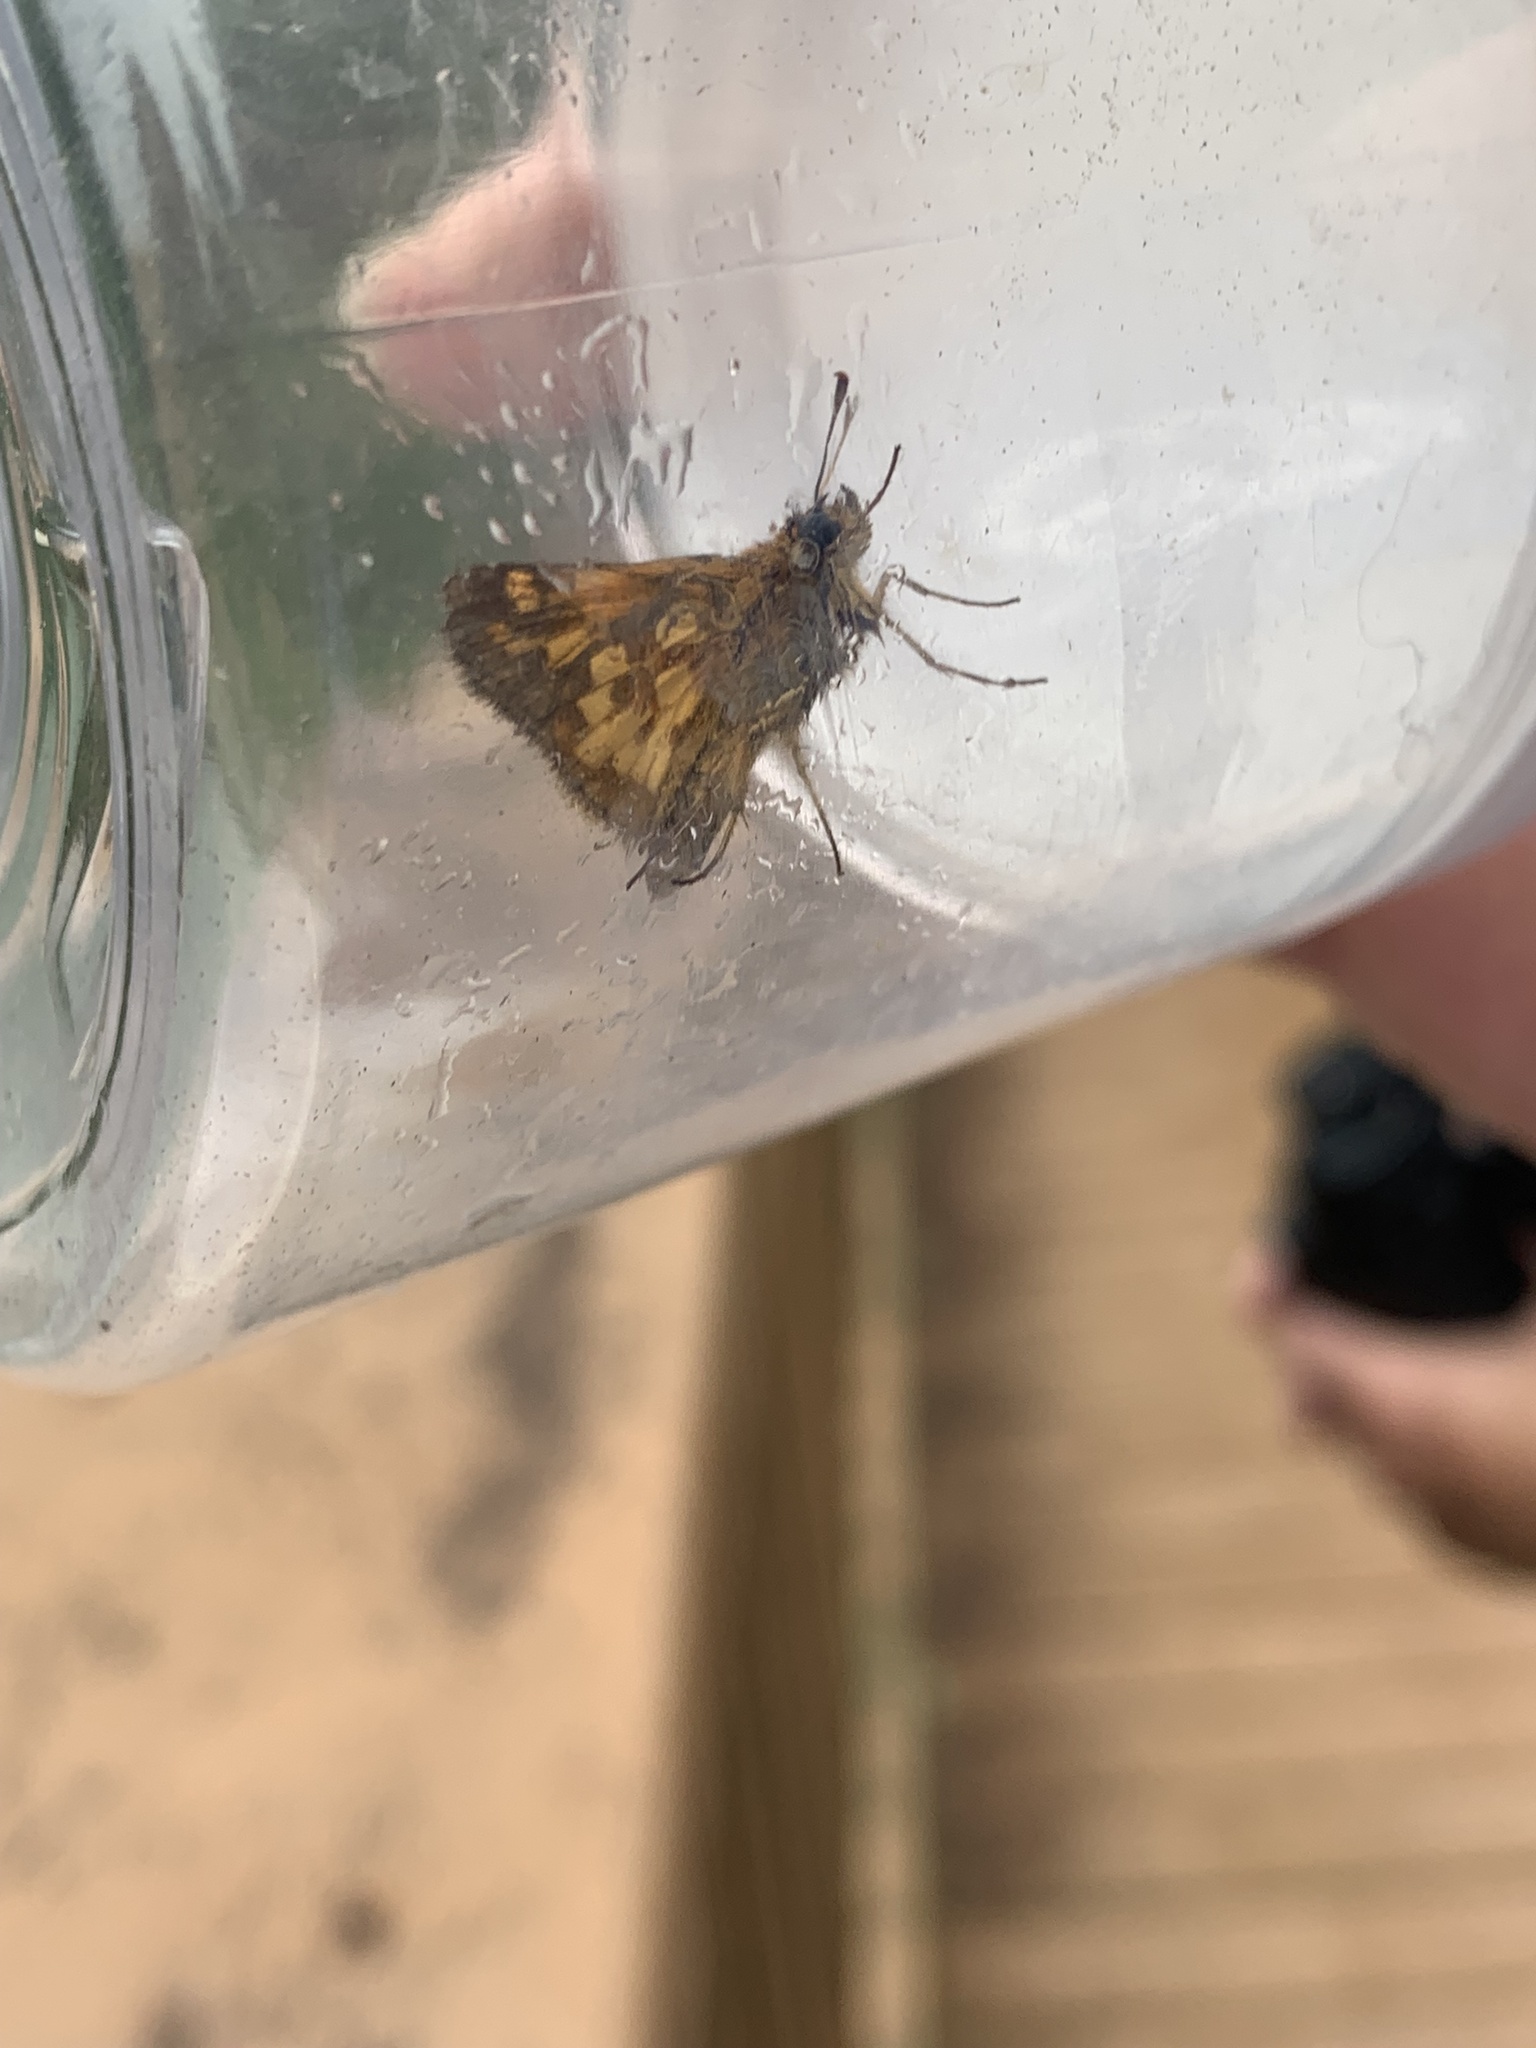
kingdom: Animalia
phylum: Arthropoda
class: Insecta
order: Lepidoptera
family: Hesperiidae
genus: Polites
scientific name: Polites coras
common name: Peck's skipper
